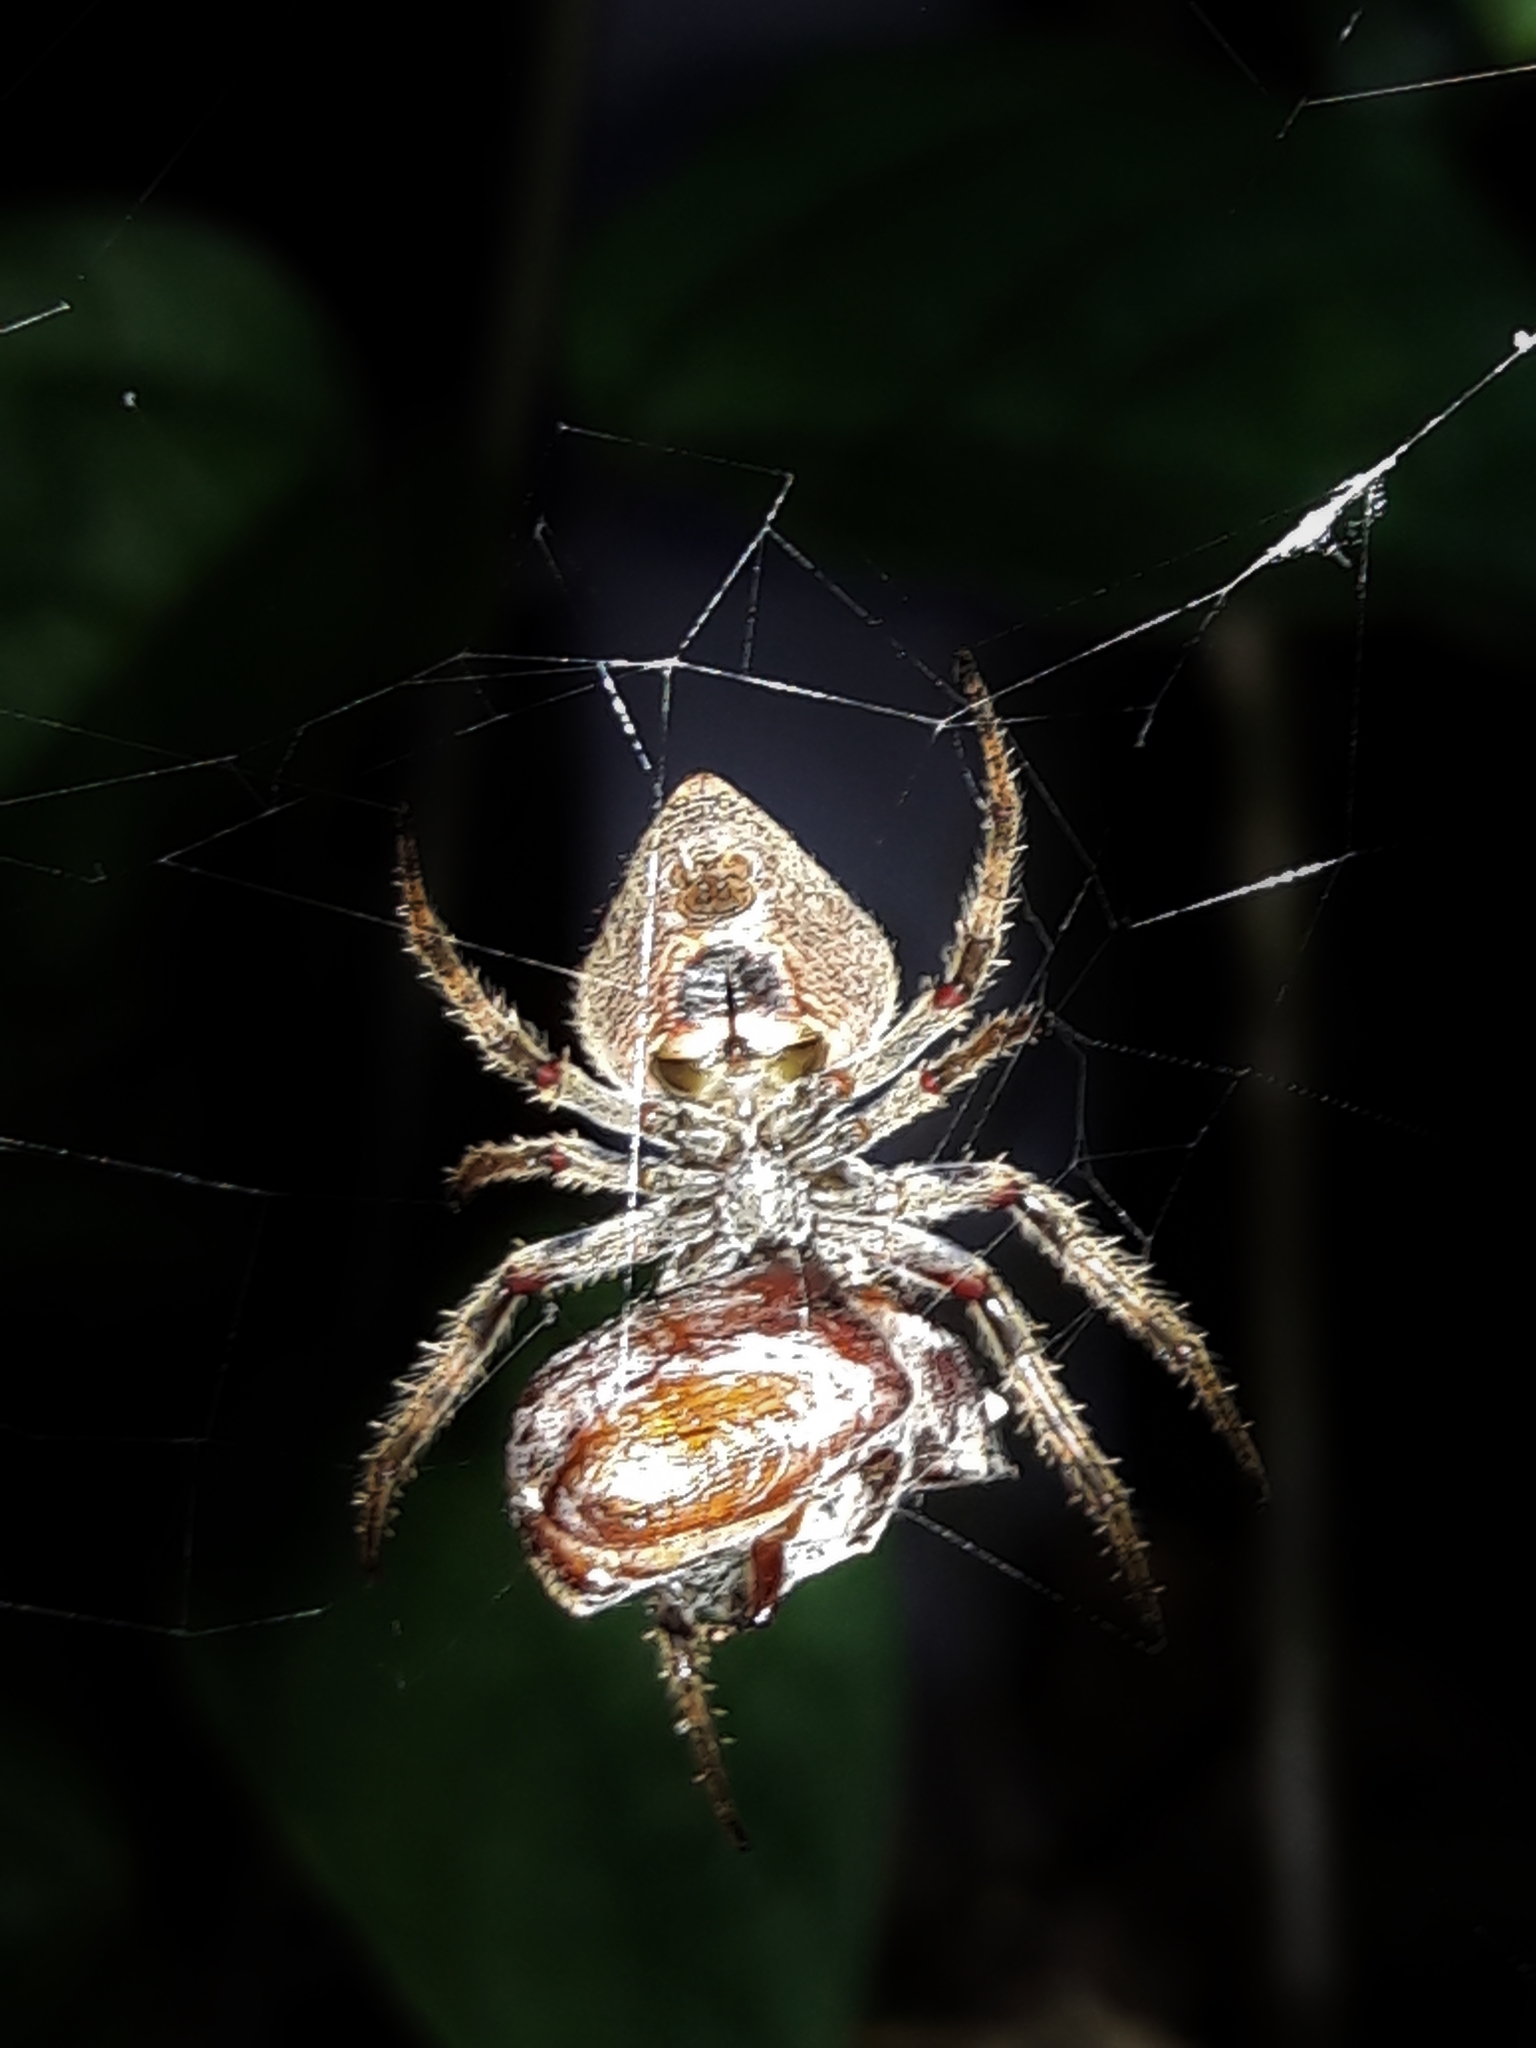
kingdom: Animalia
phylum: Arthropoda
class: Arachnida
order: Araneae
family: Araneidae
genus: Eriophora
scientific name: Eriophora edax
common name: Orb weavers
